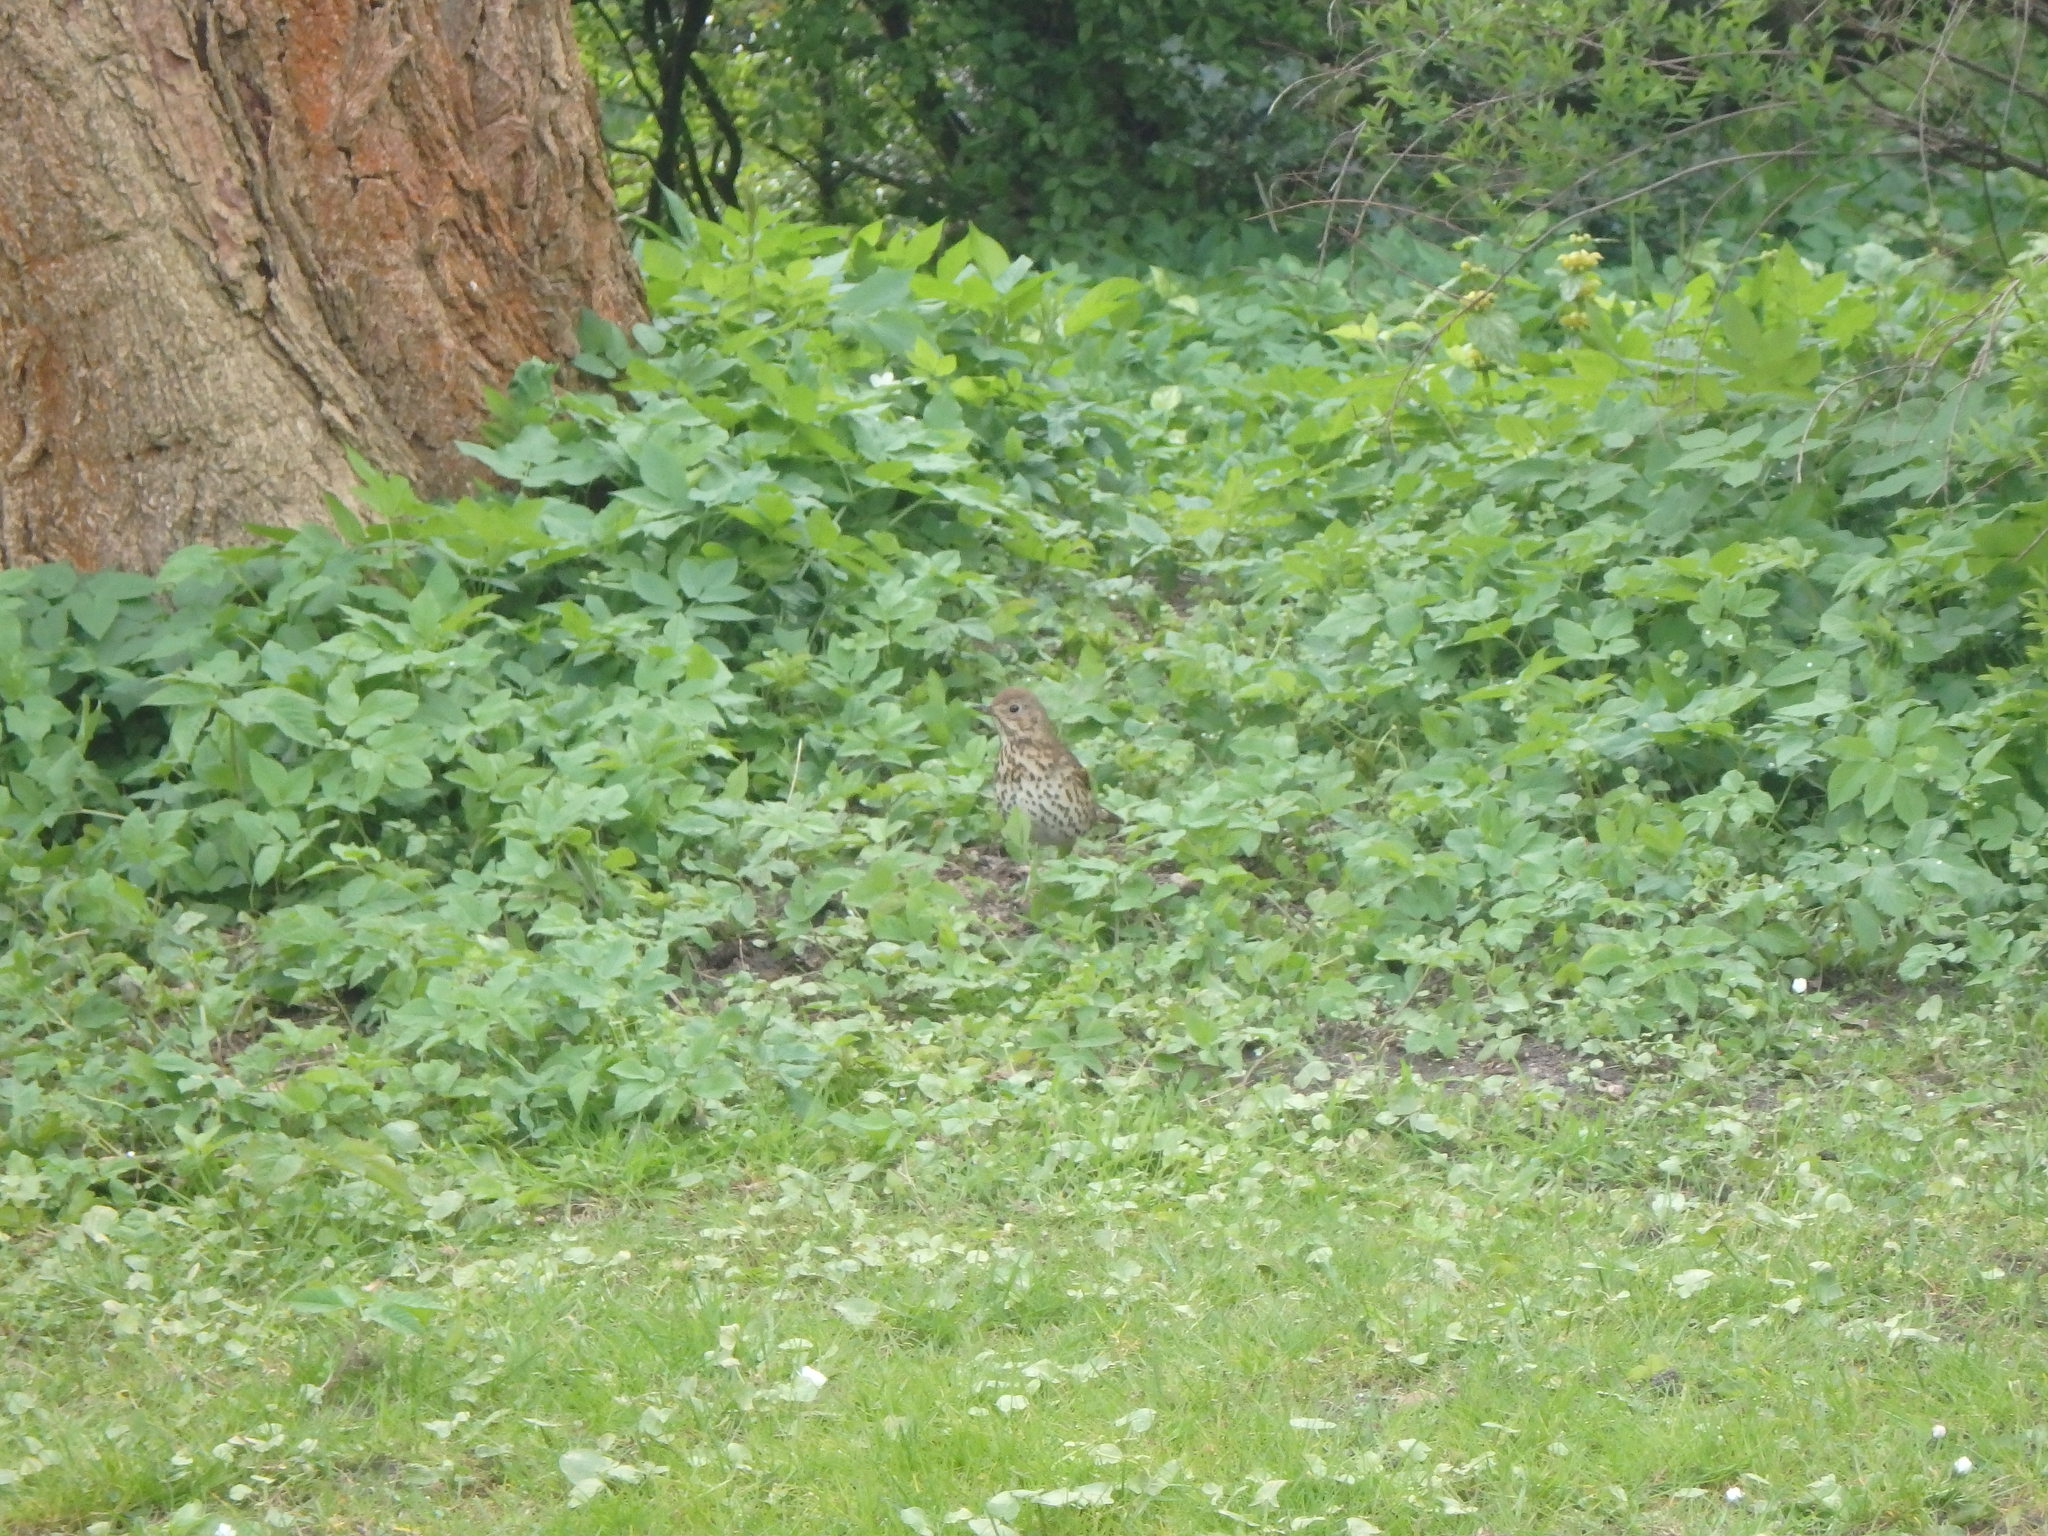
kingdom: Animalia
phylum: Chordata
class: Aves
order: Passeriformes
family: Turdidae
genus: Turdus
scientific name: Turdus philomelos
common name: Song thrush
